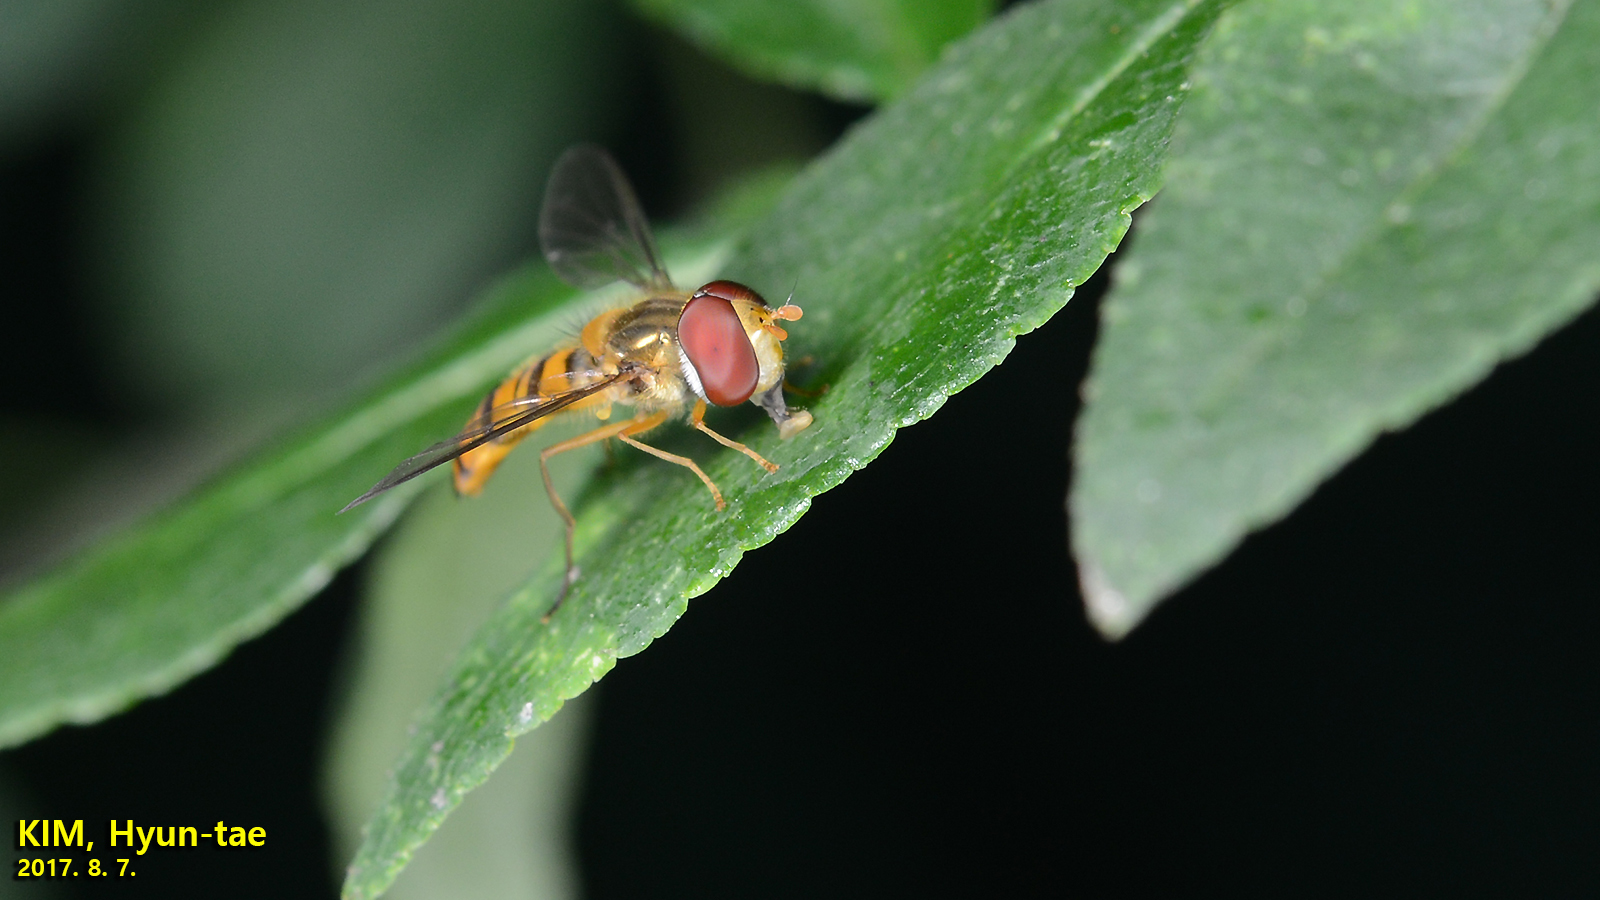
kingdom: Animalia
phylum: Arthropoda
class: Insecta
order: Diptera
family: Syrphidae
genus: Episyrphus
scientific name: Episyrphus balteatus
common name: Marmalade hoverfly
